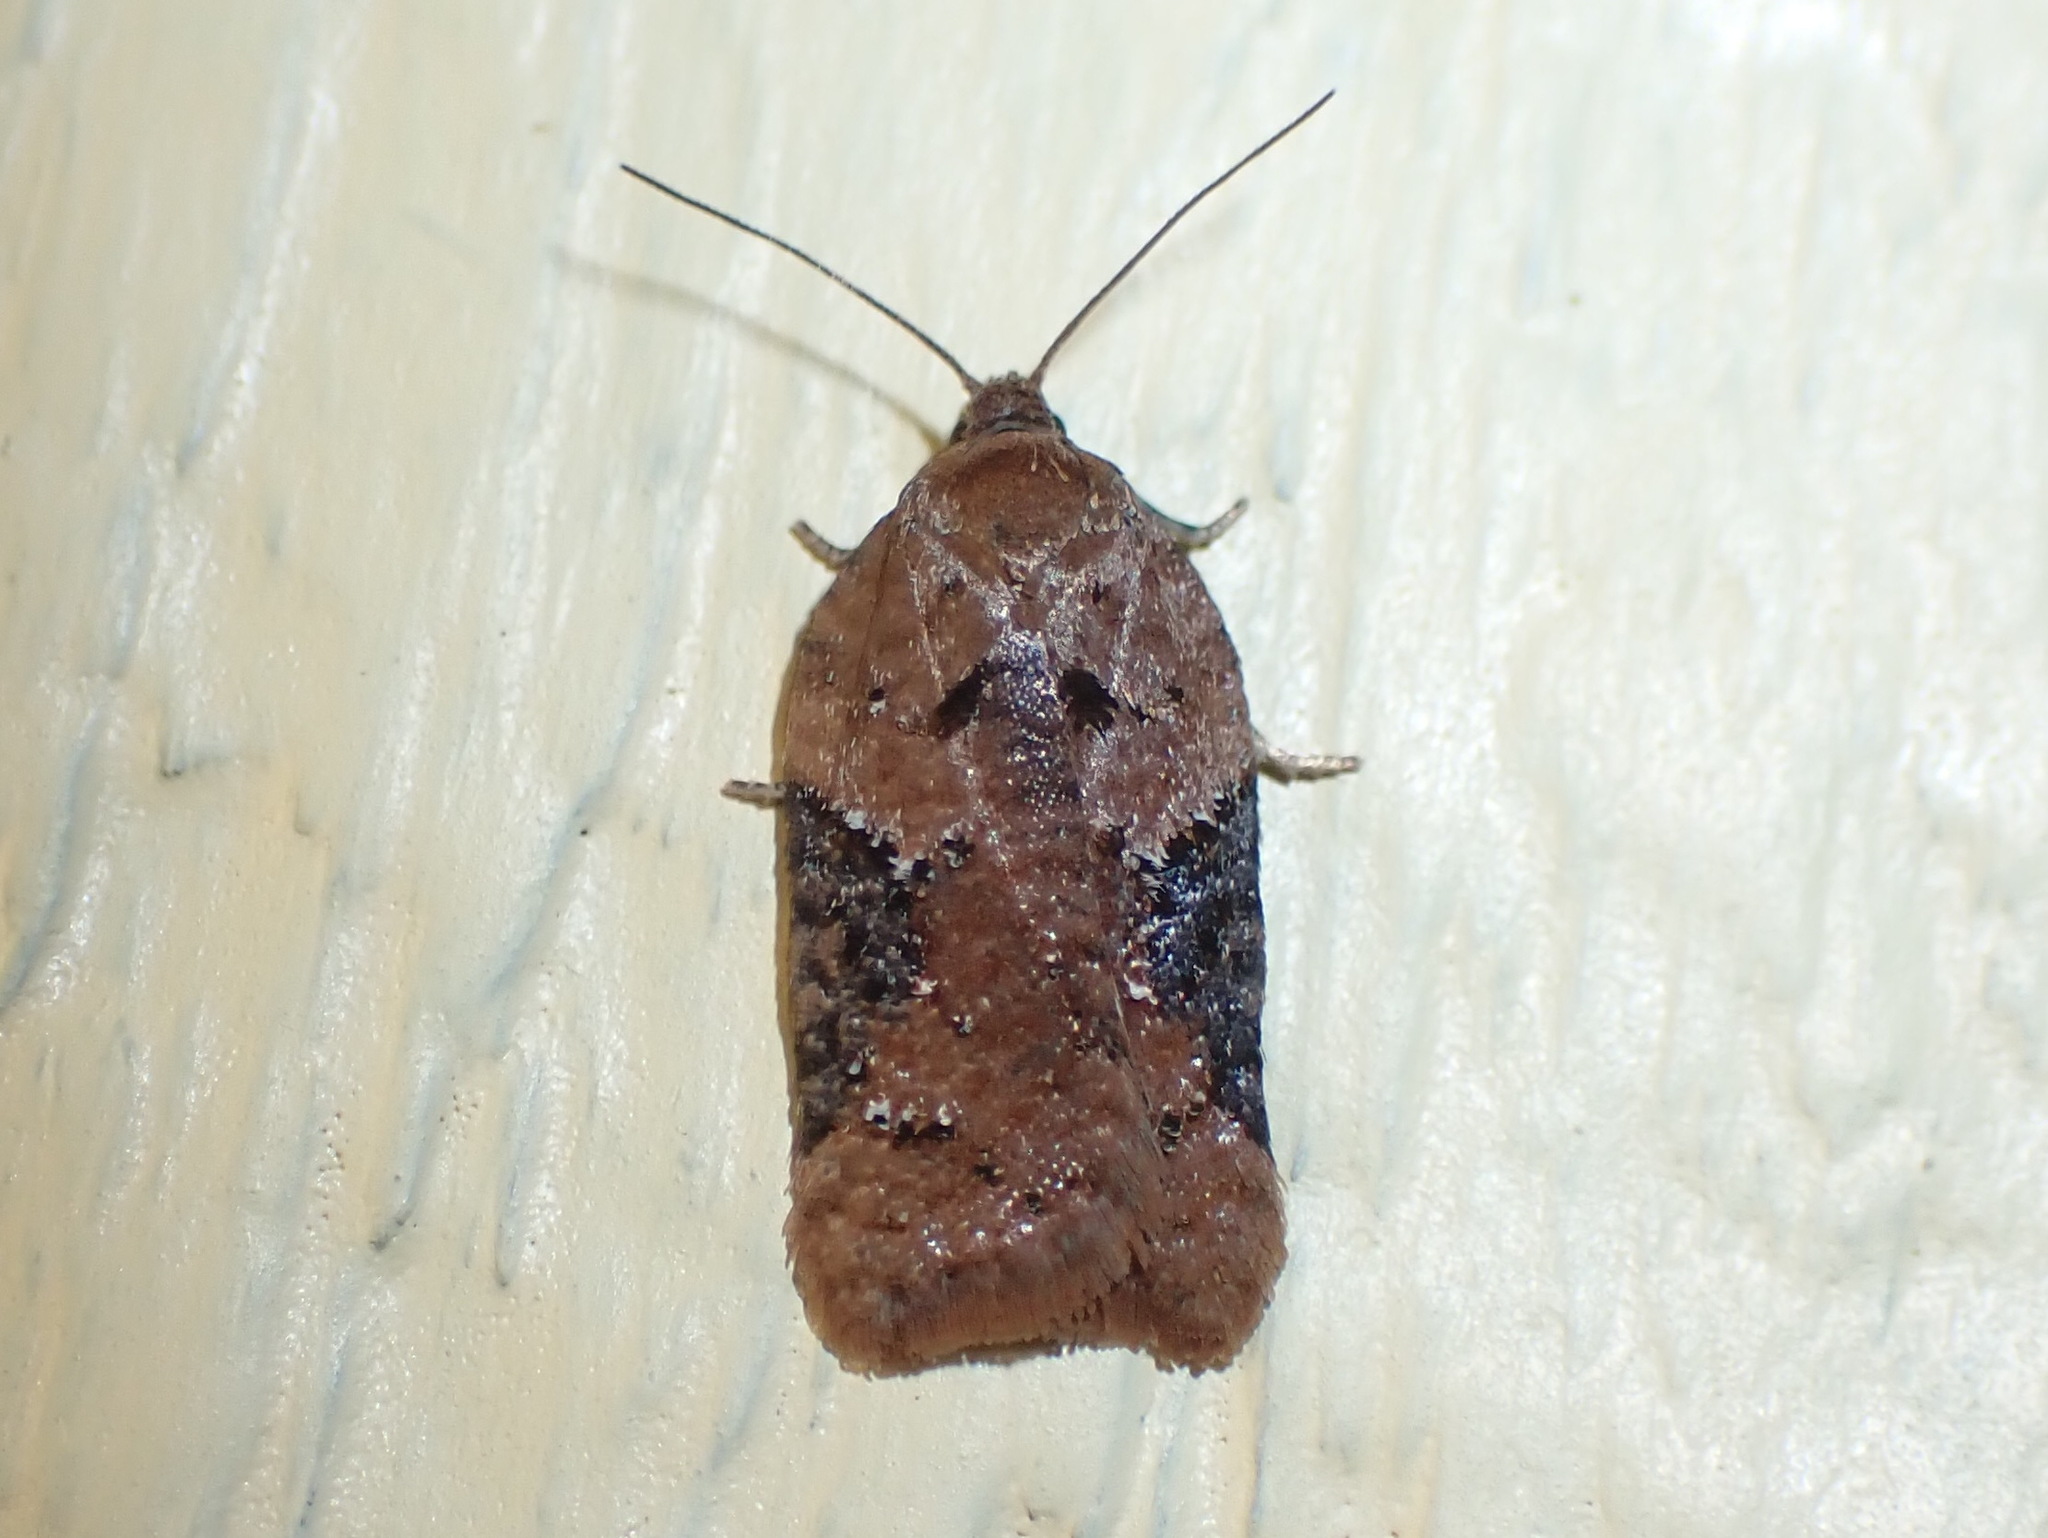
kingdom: Animalia
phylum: Arthropoda
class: Insecta
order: Lepidoptera
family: Tortricidae
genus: Acleris
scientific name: Acleris braunana
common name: Alder leafroller
